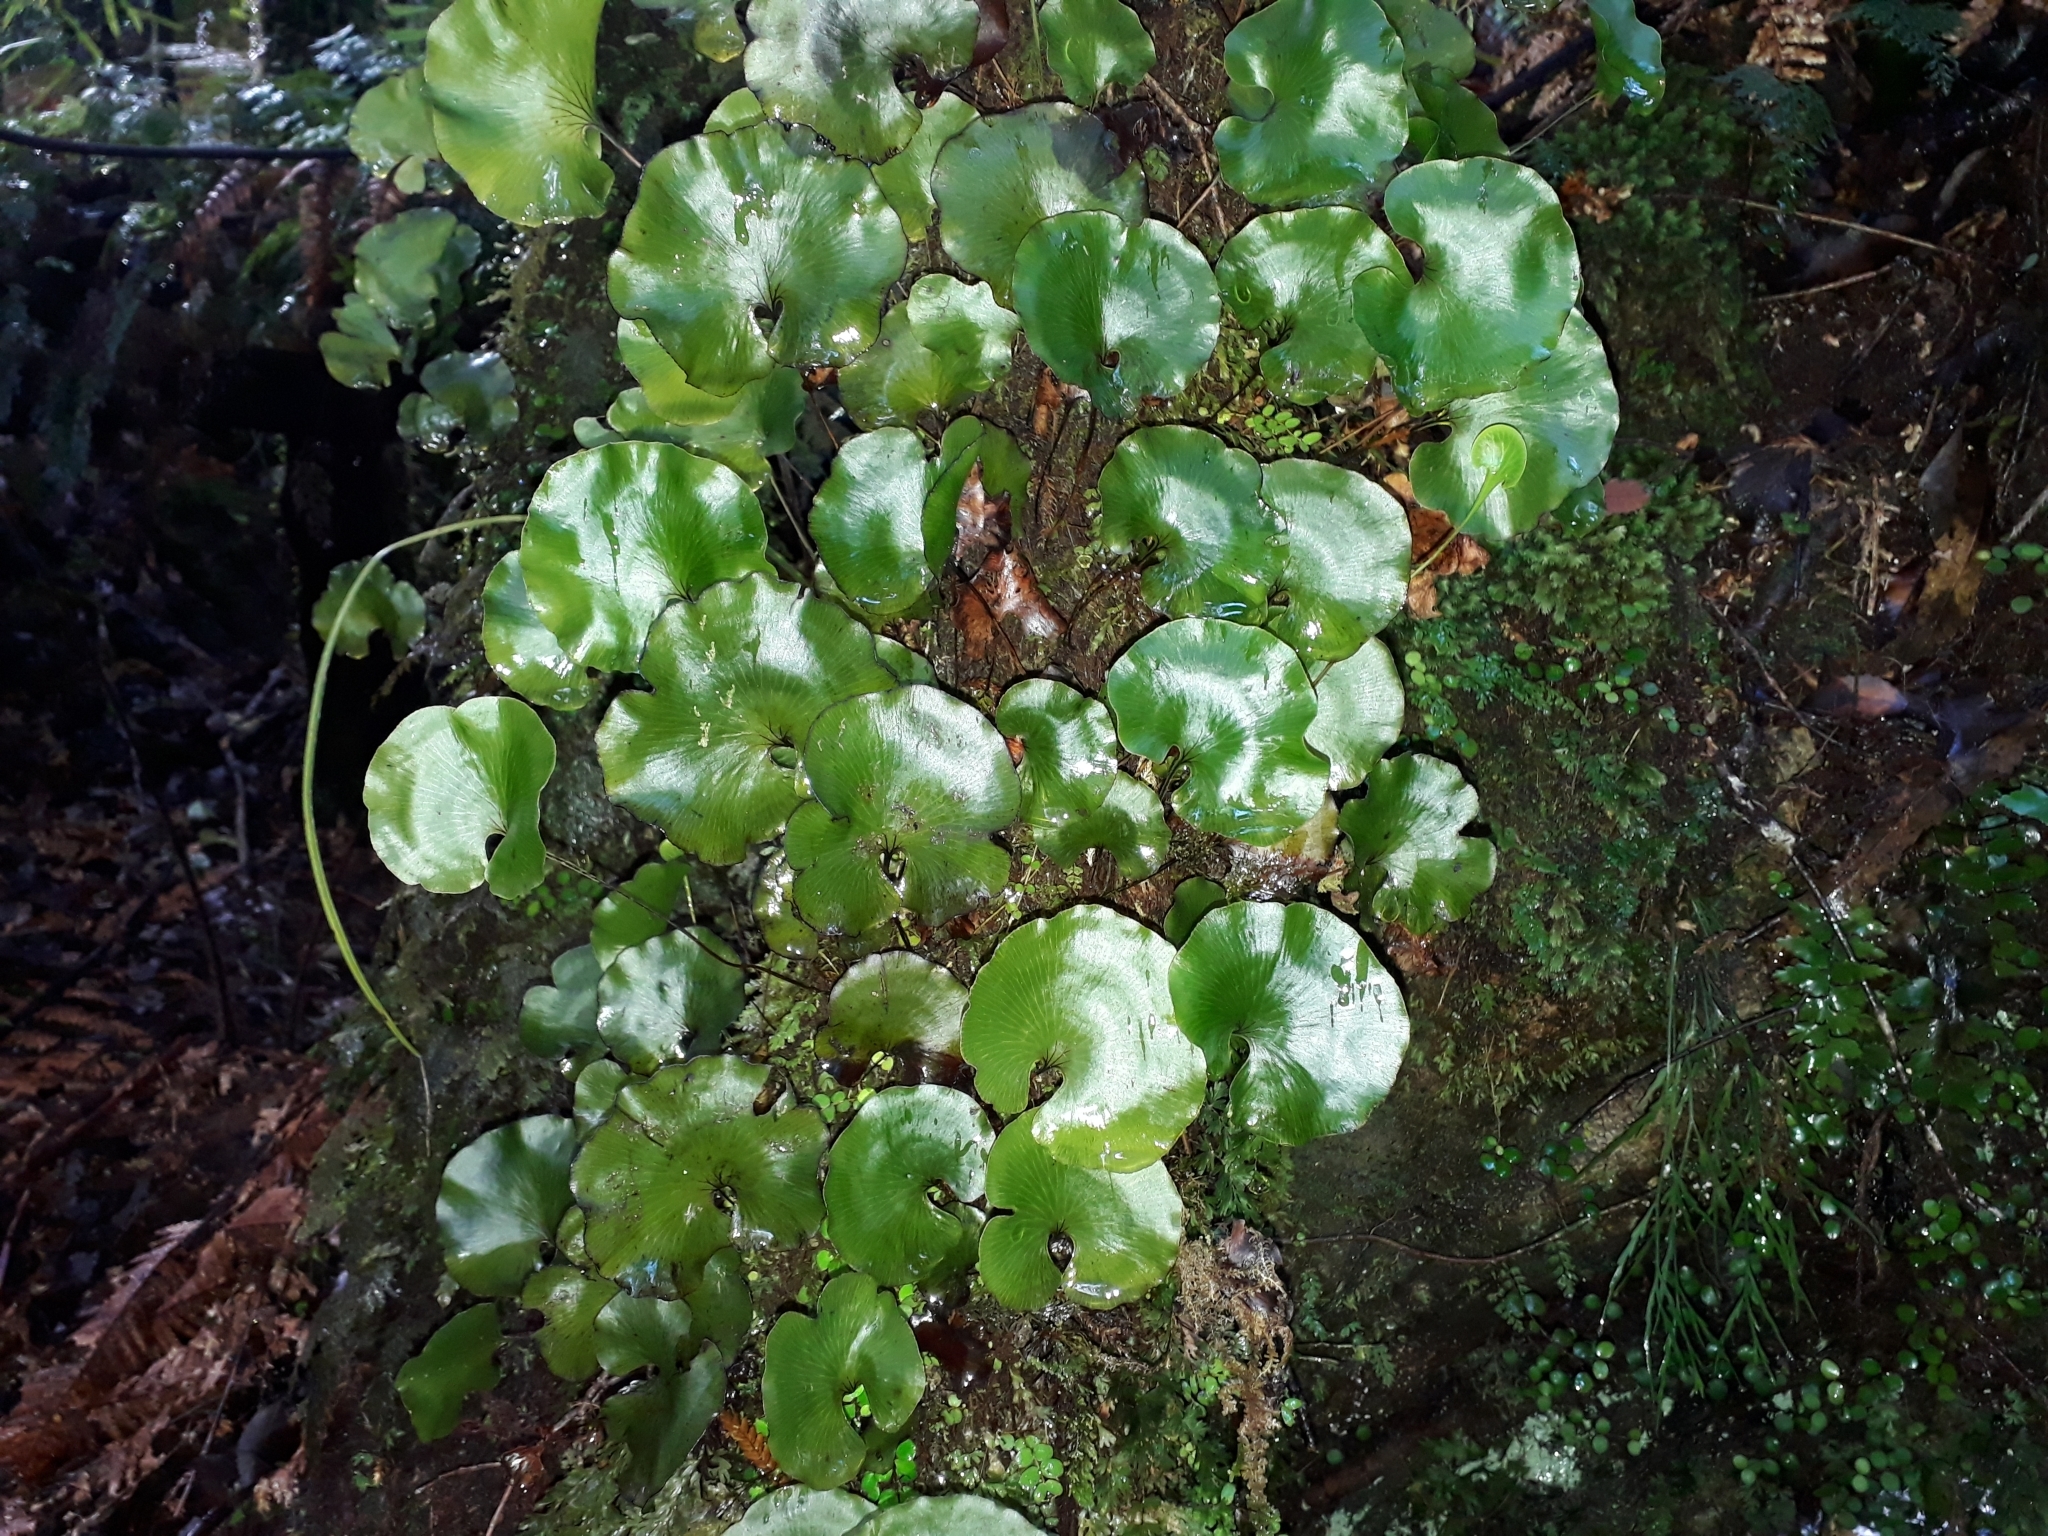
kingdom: Plantae
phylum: Tracheophyta
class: Polypodiopsida
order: Hymenophyllales
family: Hymenophyllaceae
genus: Hymenophyllum
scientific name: Hymenophyllum nephrophyllum
